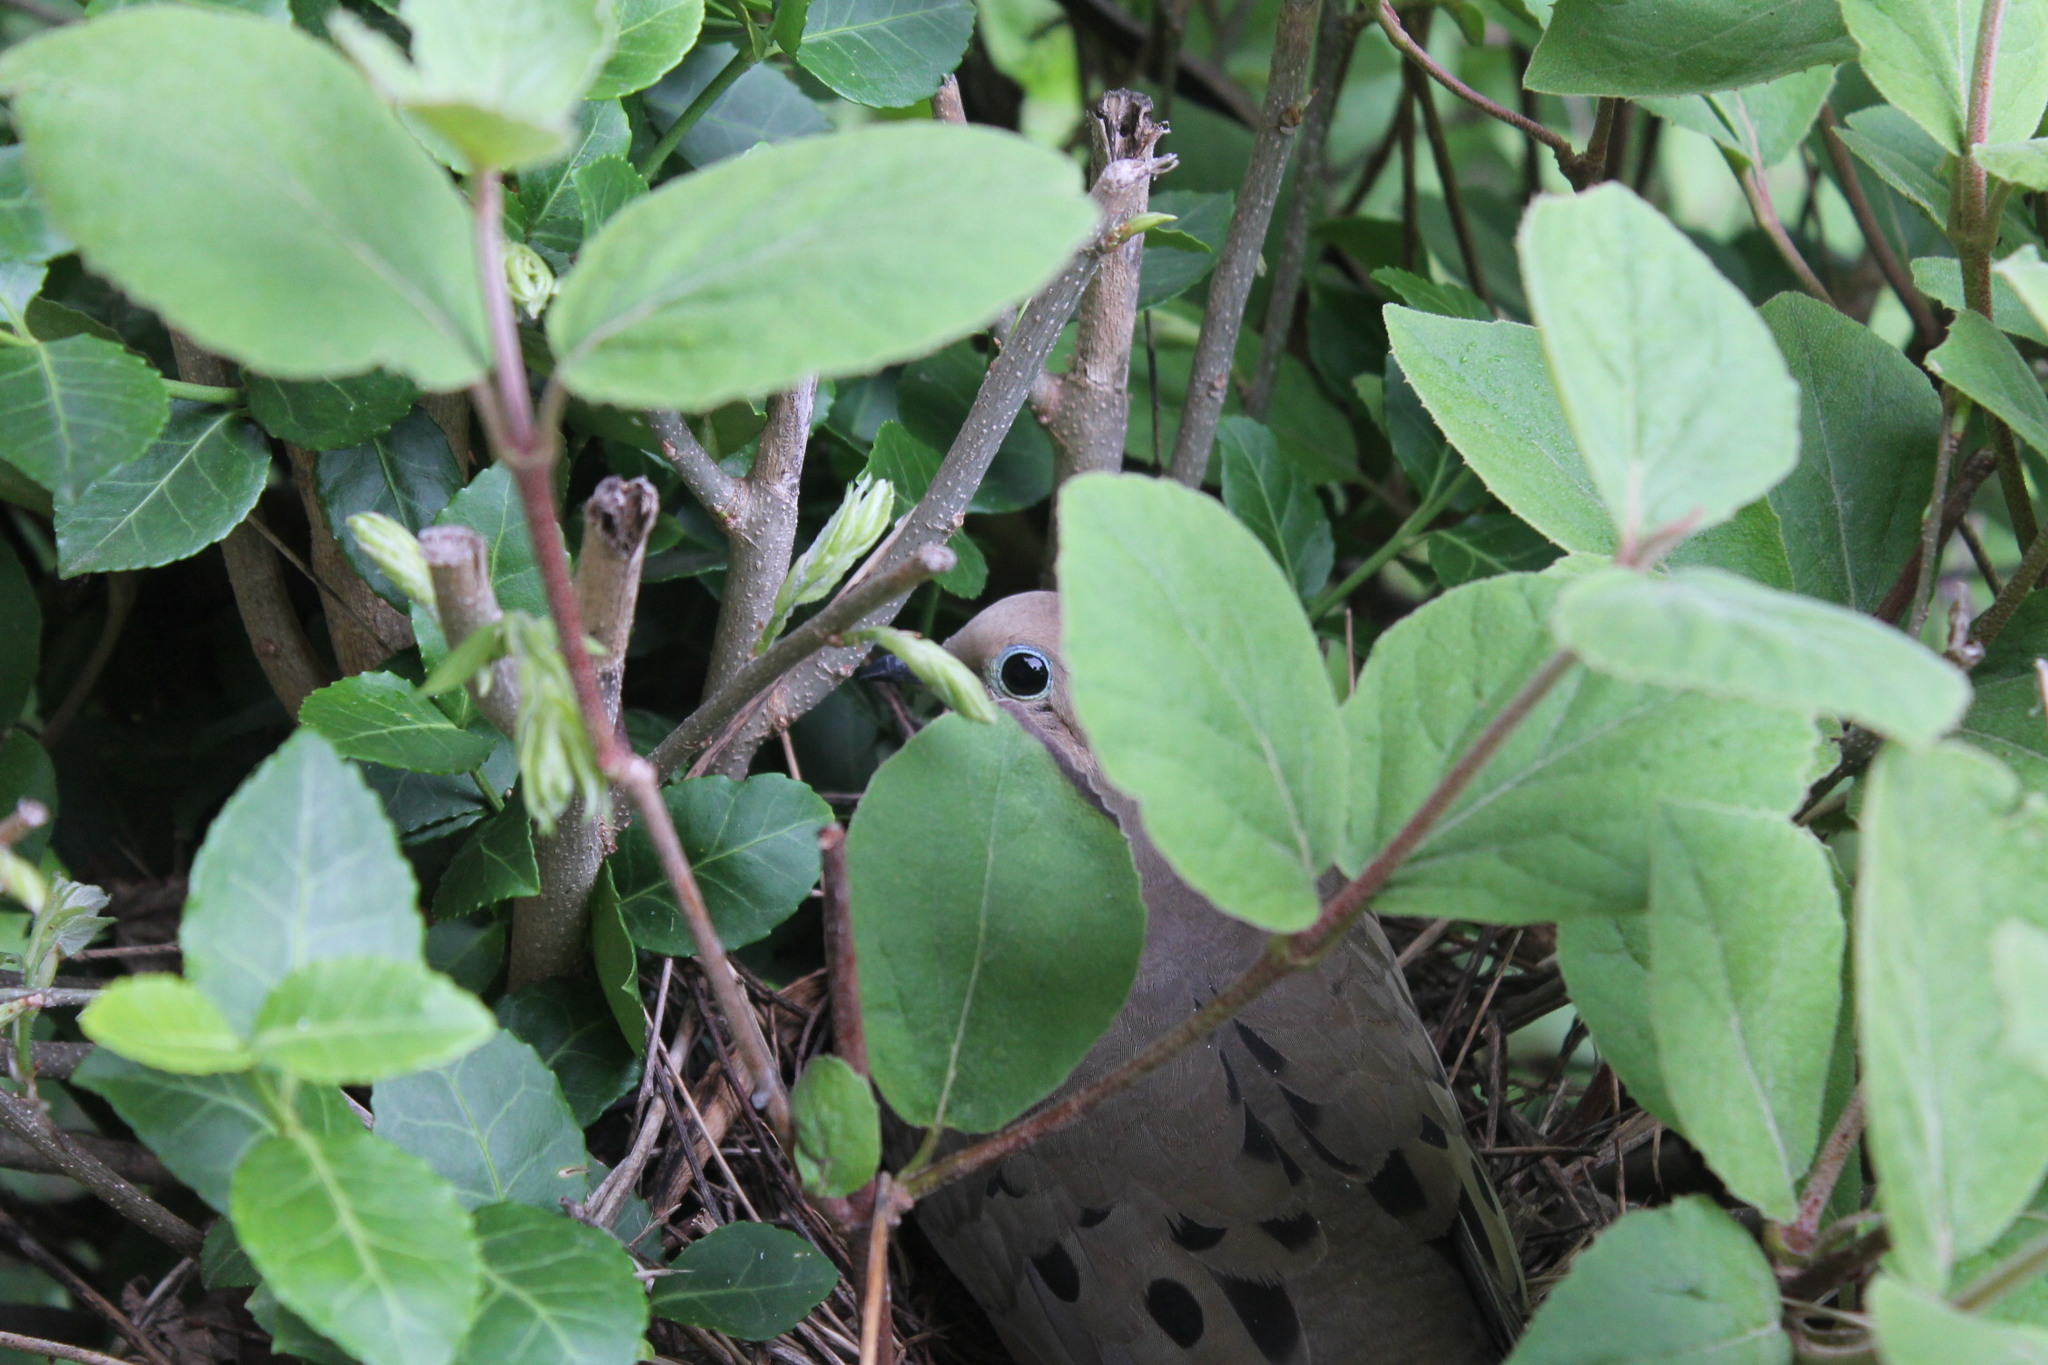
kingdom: Animalia
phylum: Chordata
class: Aves
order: Columbiformes
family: Columbidae
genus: Zenaida
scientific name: Zenaida macroura
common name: Mourning dove
